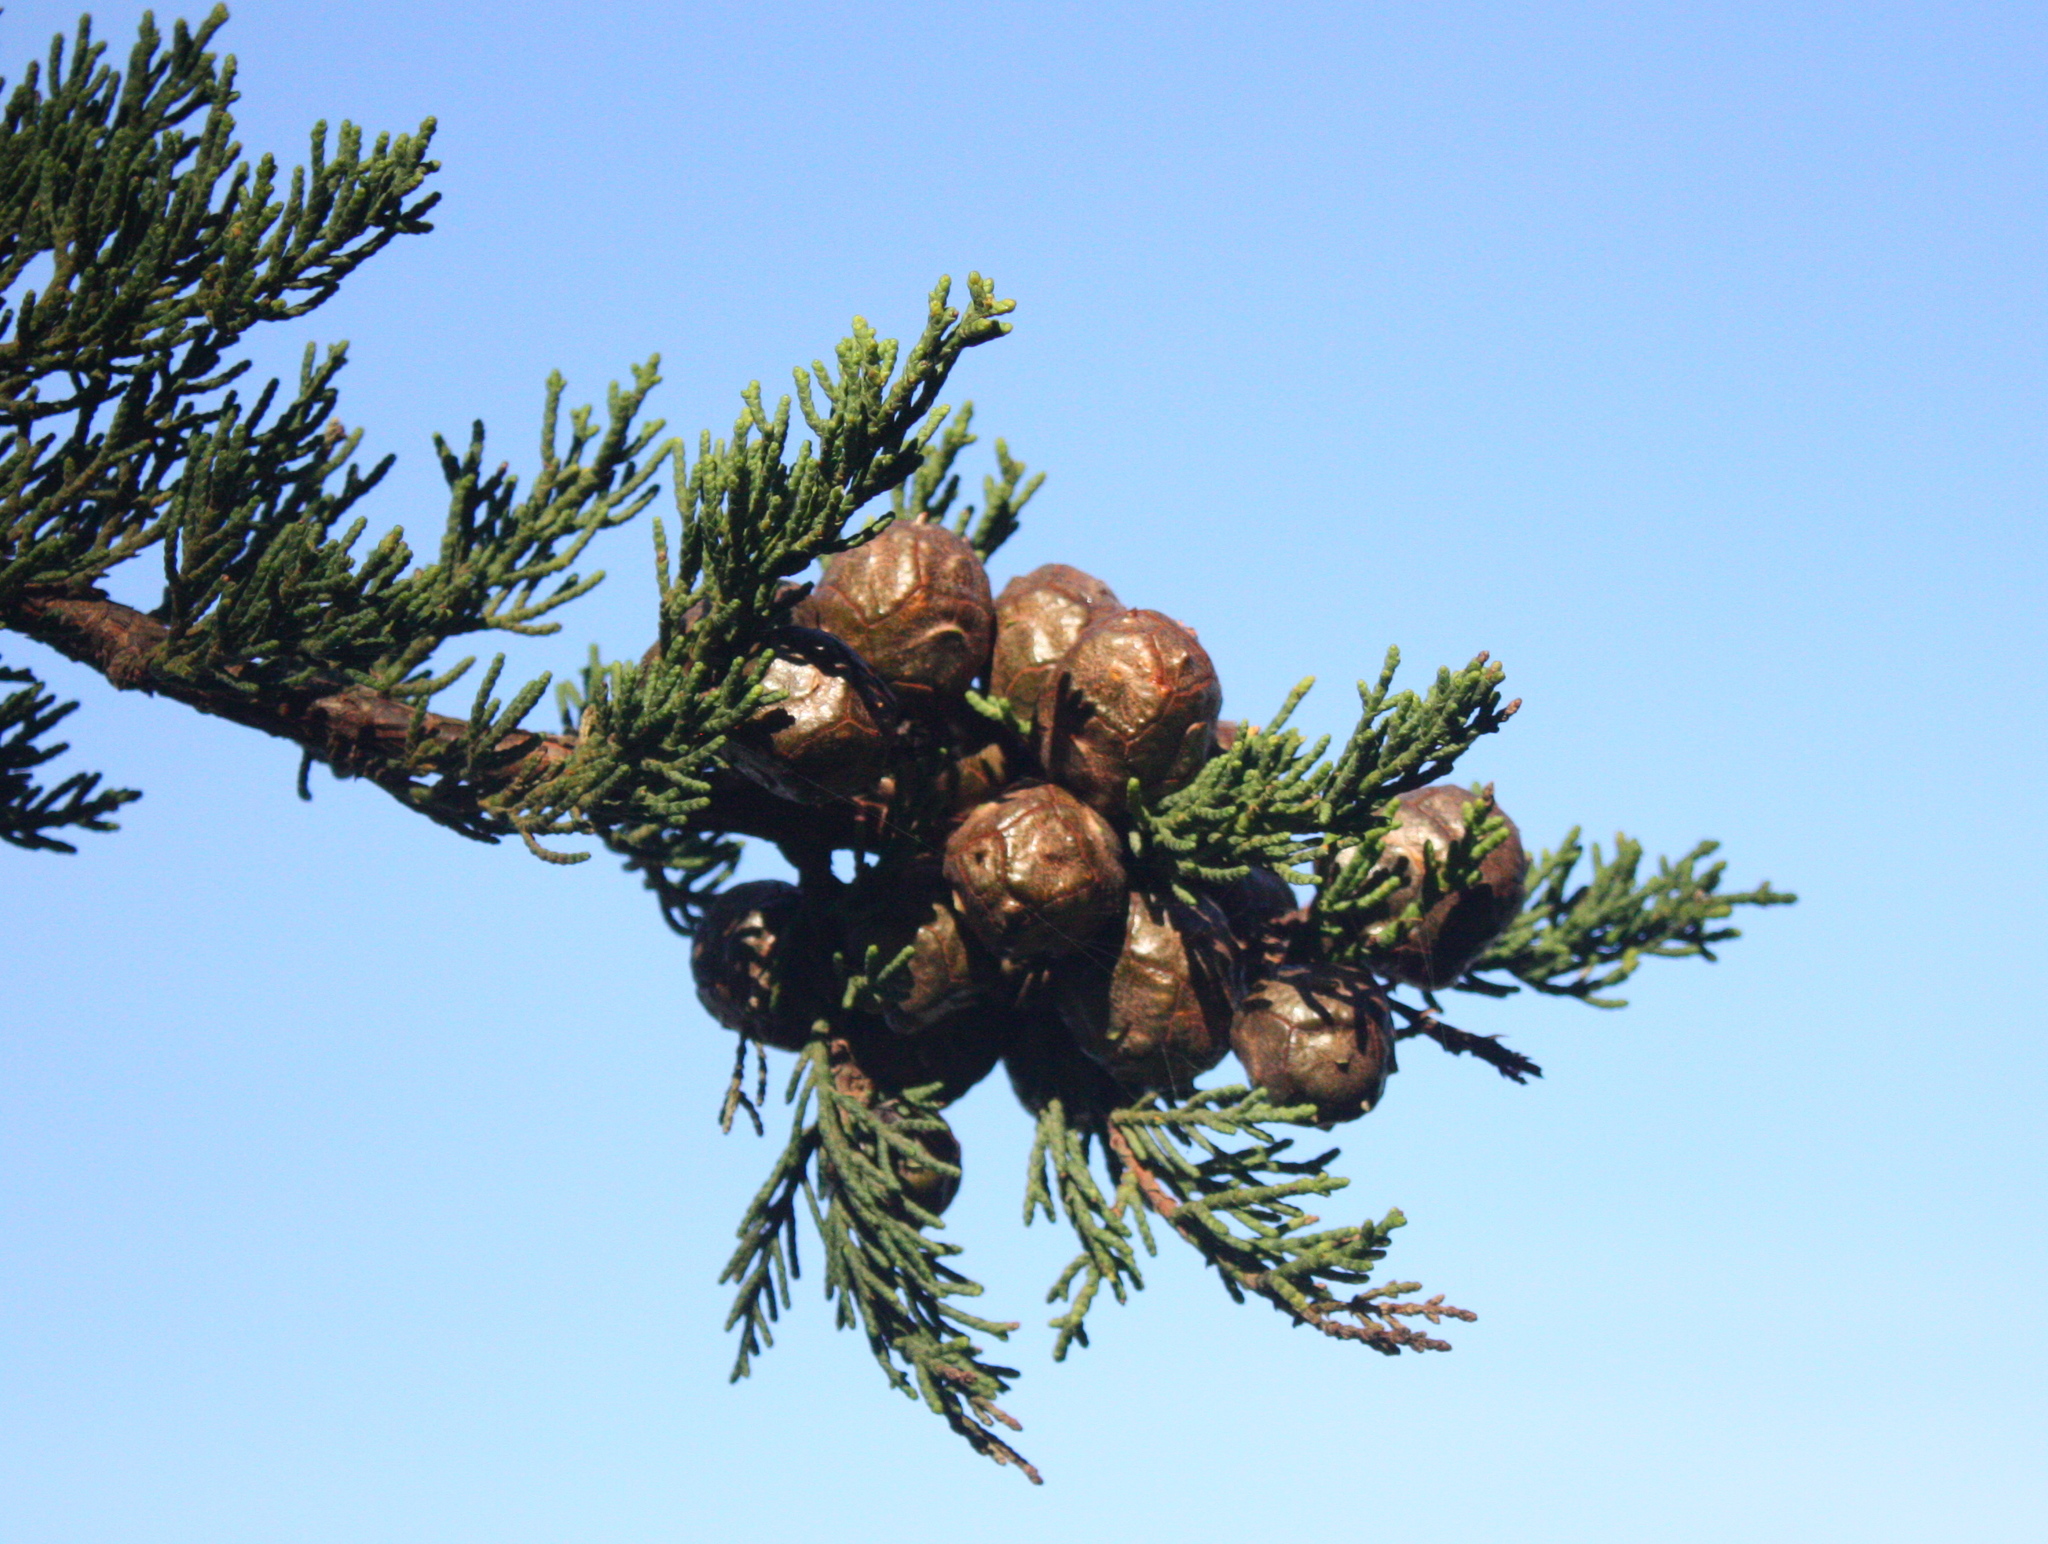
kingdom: Plantae
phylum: Tracheophyta
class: Pinopsida
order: Pinales
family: Cupressaceae
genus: Cupressus
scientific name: Cupressus macrocarpa
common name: Monterey cypress
